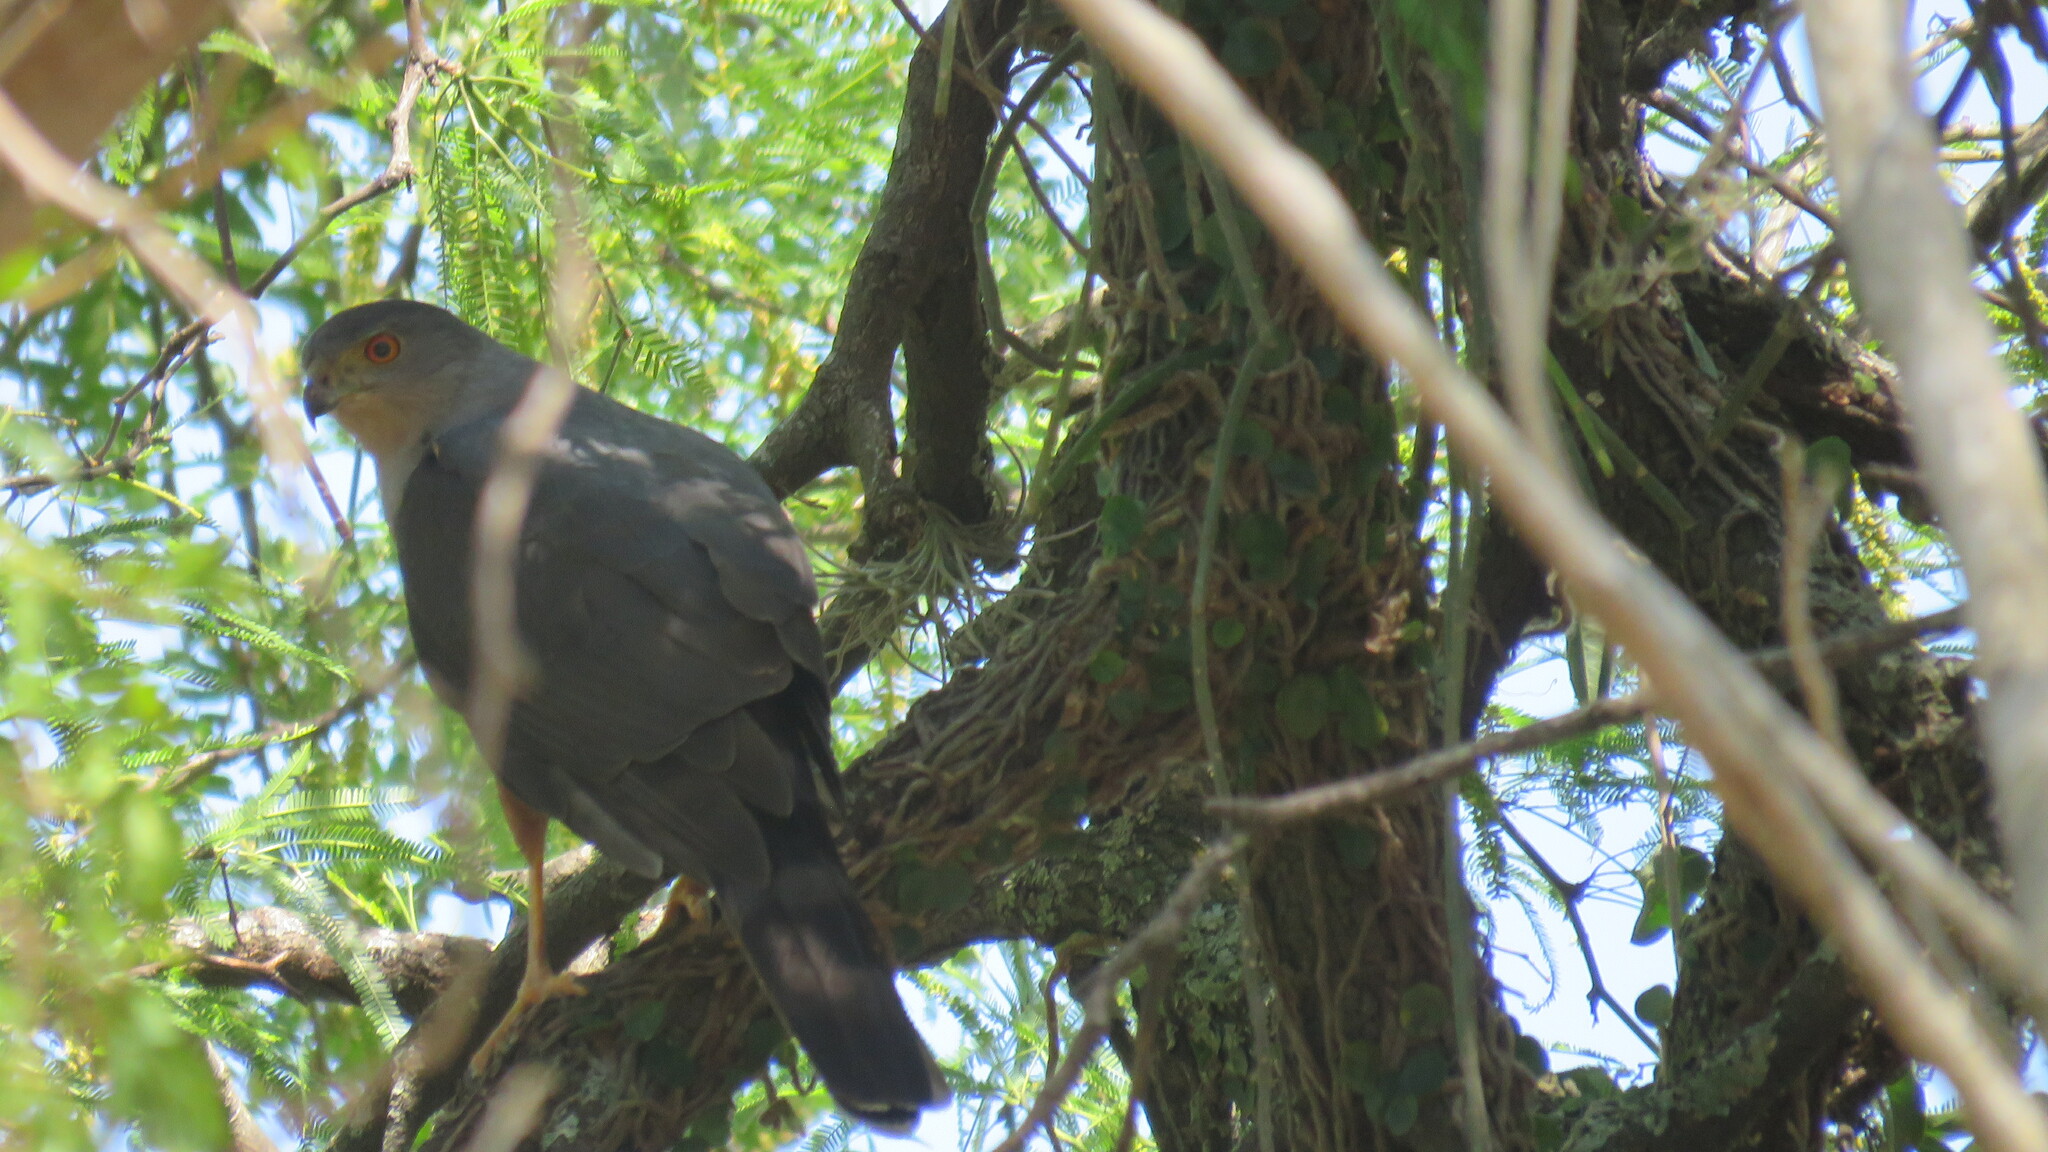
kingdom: Animalia
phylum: Chordata
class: Aves
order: Accipitriformes
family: Accipitridae
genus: Accipiter
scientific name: Accipiter bicolor
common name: Bicolored hawk
